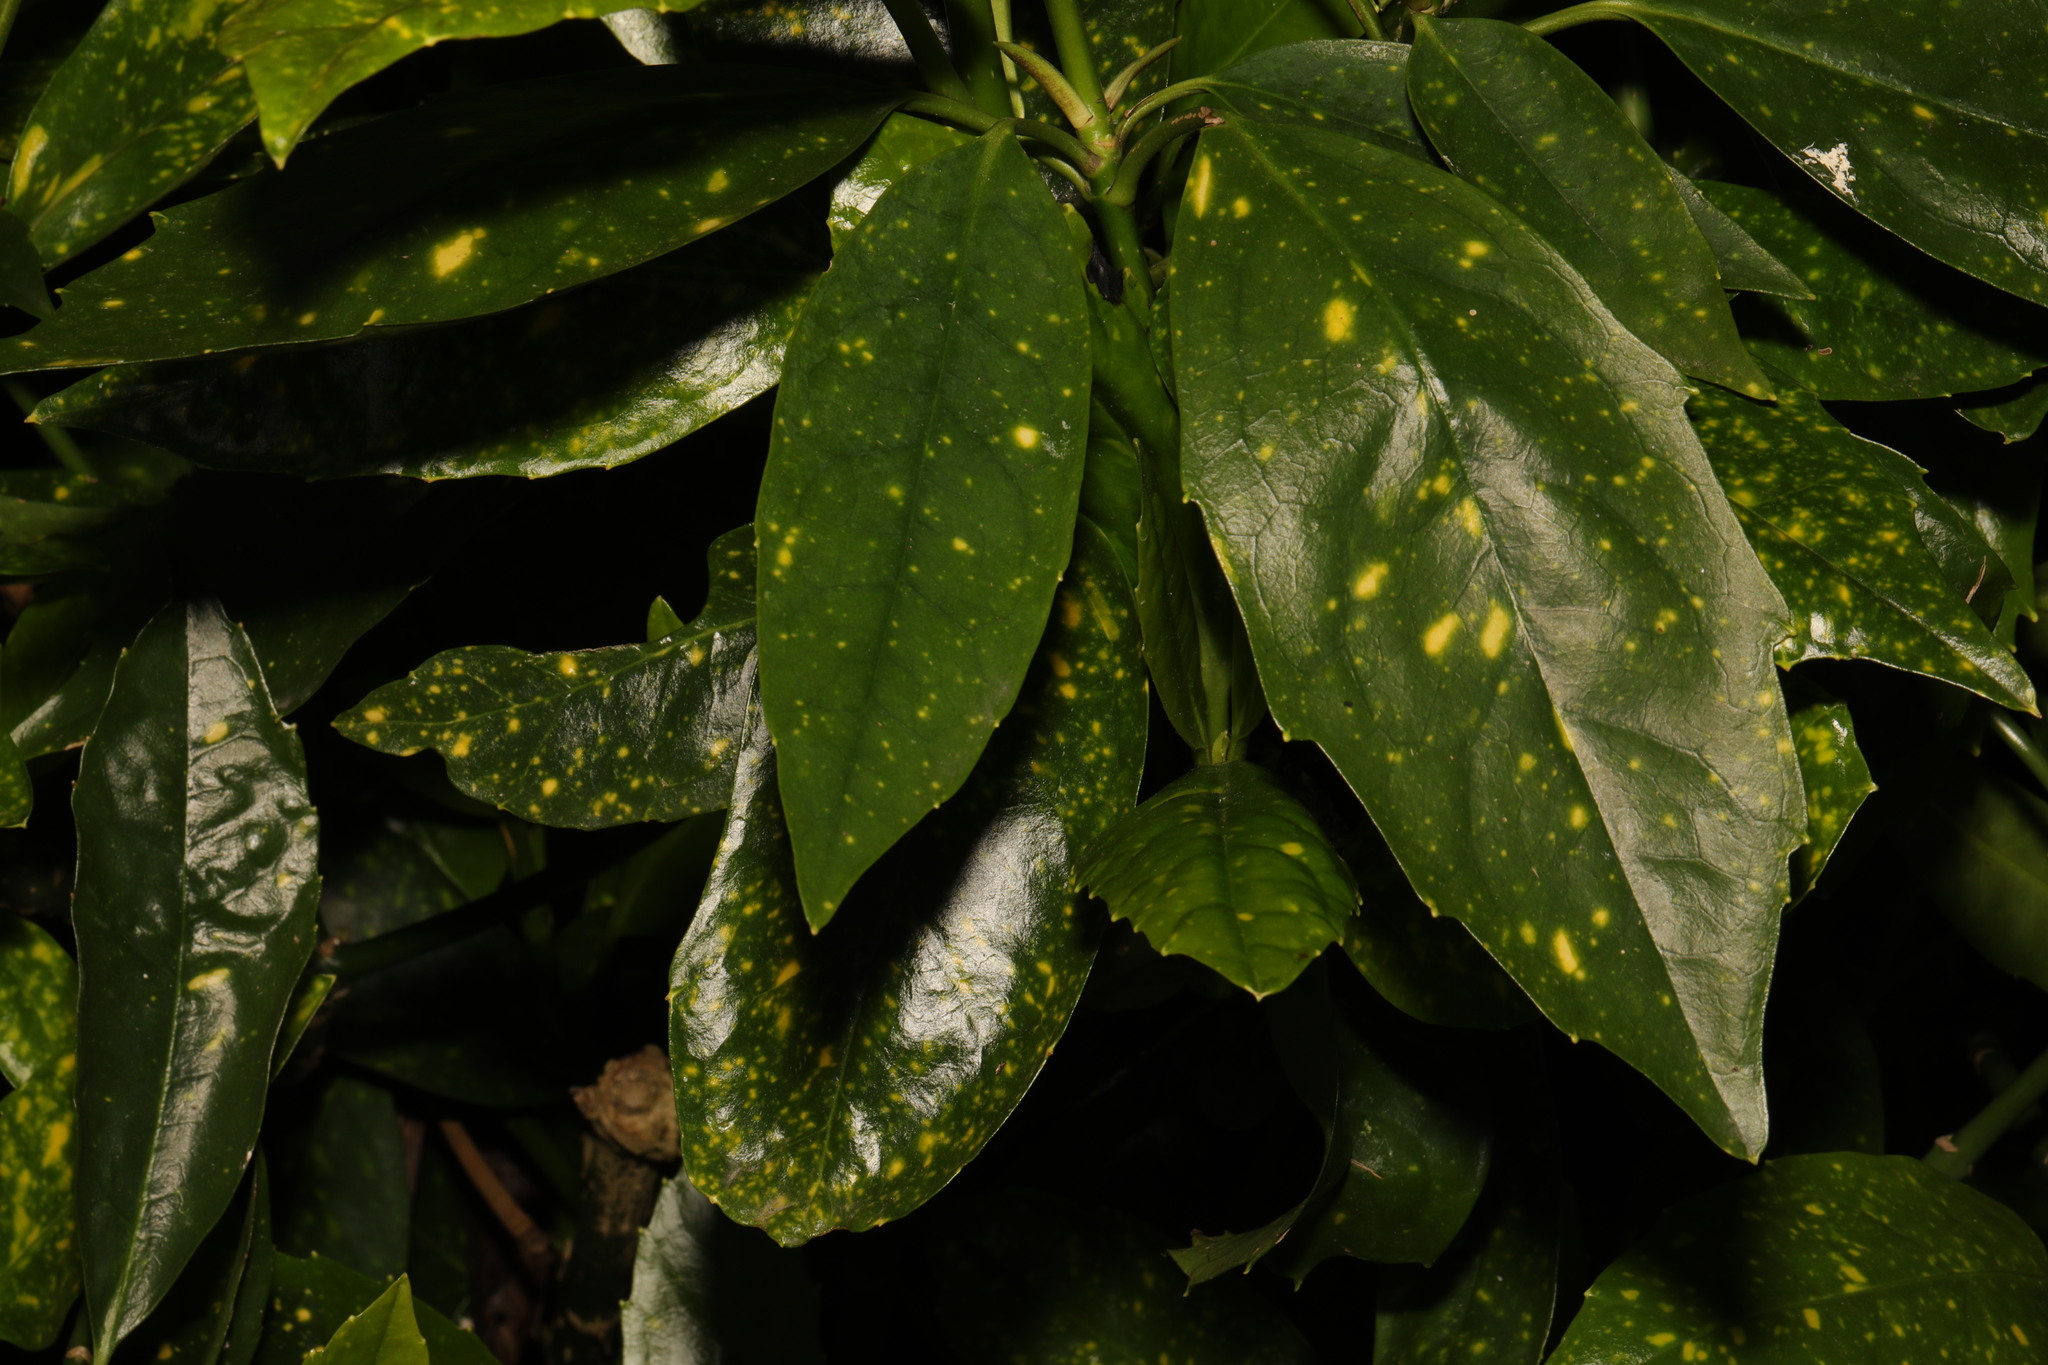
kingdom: Plantae
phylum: Tracheophyta
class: Magnoliopsida
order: Garryales
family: Garryaceae
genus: Aucuba
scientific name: Aucuba japonica
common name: Spotted-laurel
